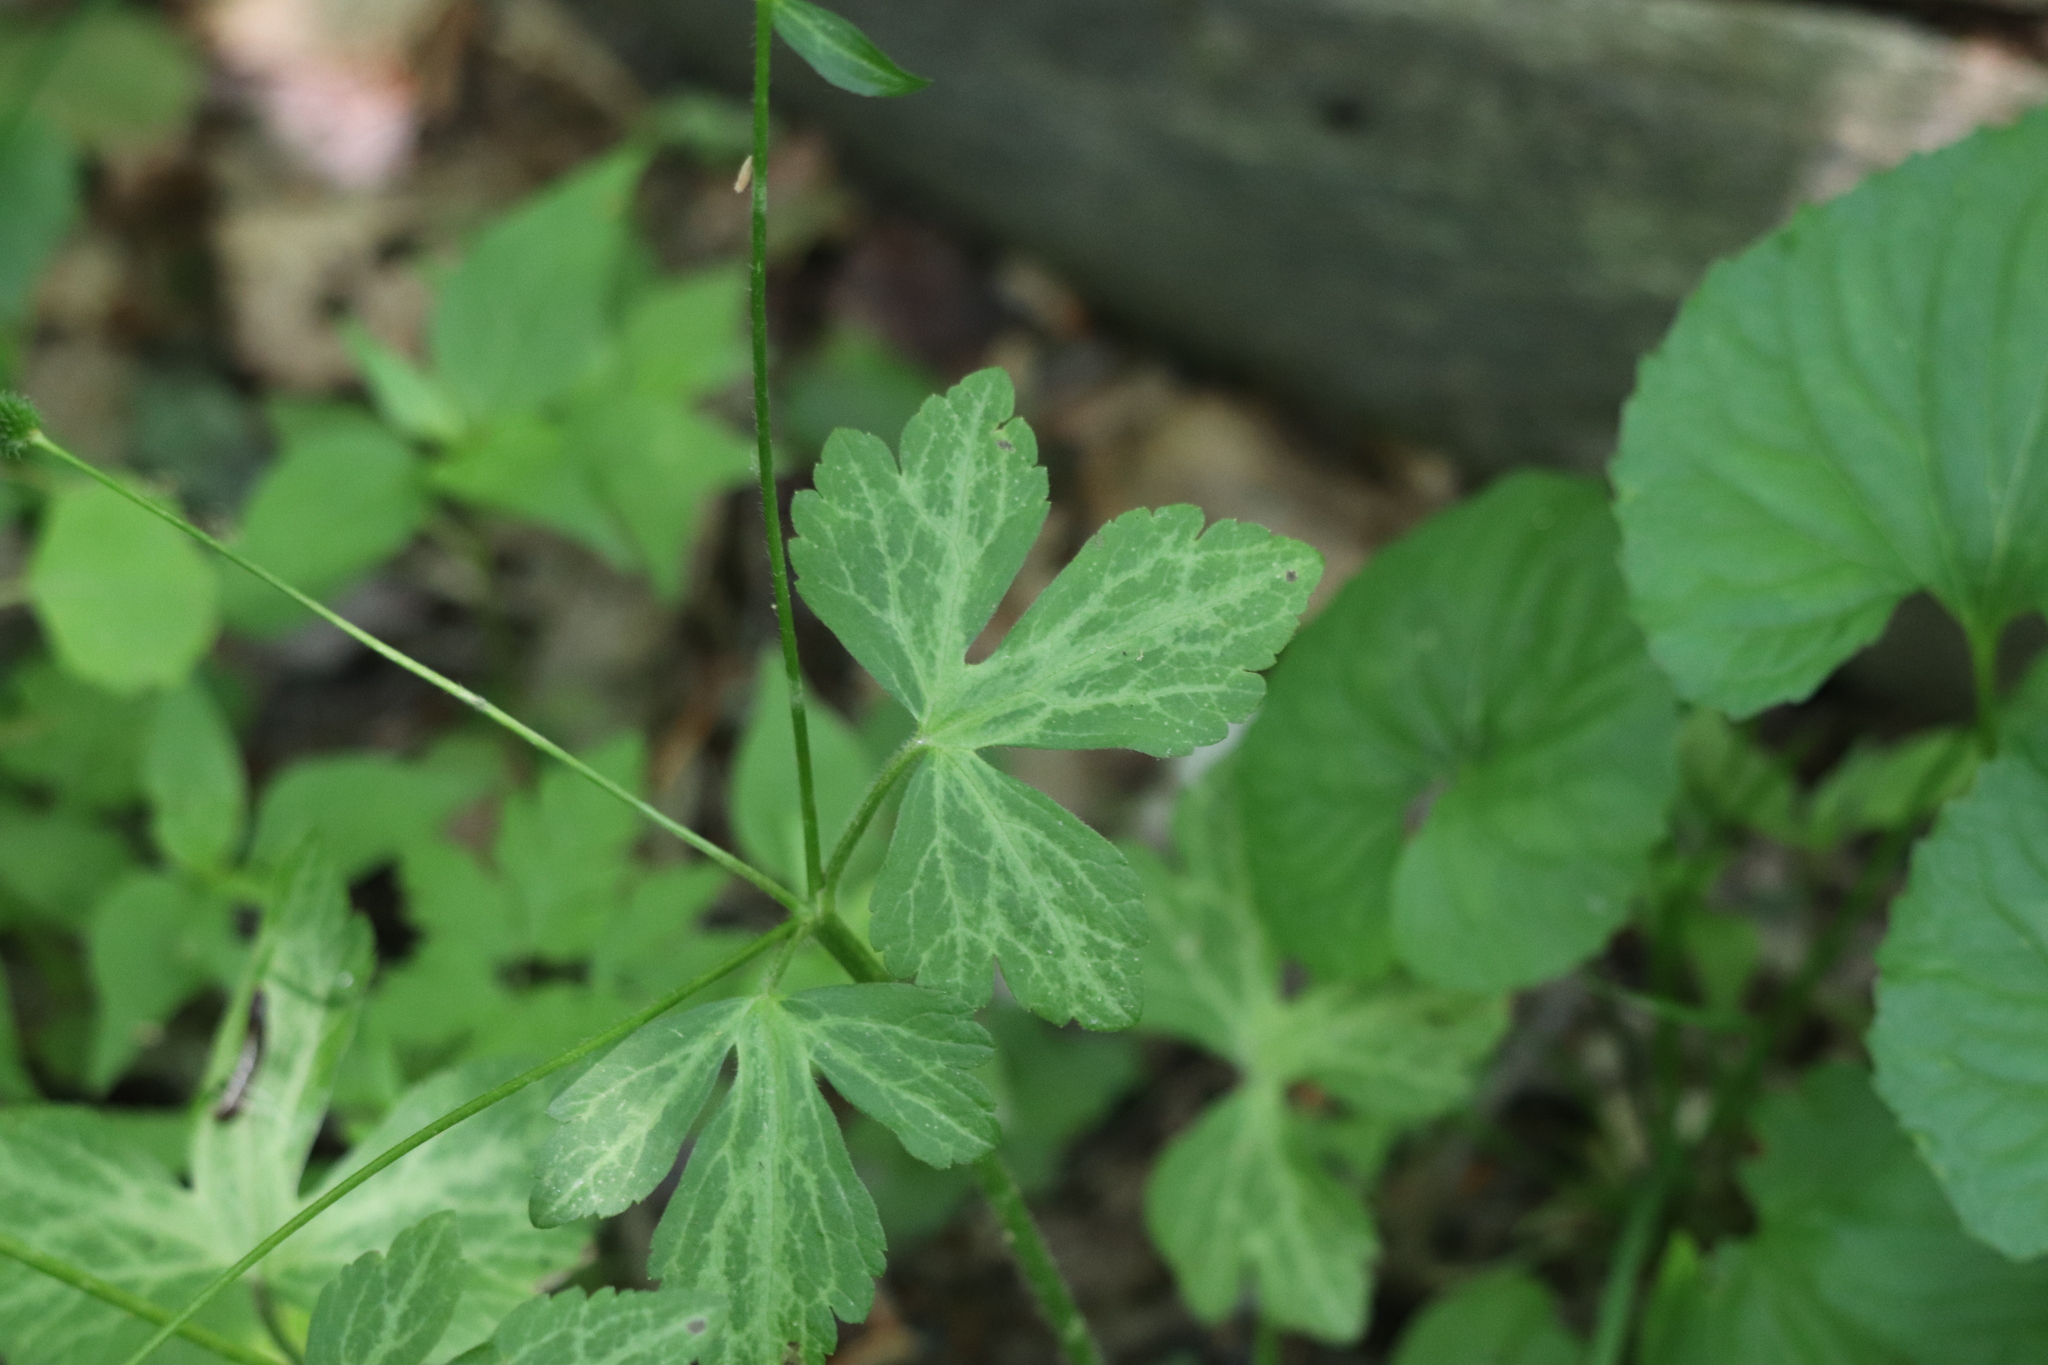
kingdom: Plantae
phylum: Tracheophyta
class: Magnoliopsida
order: Ranunculales
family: Ranunculaceae
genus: Ranunculus
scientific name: Ranunculus recurvatus
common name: Blisterwort
